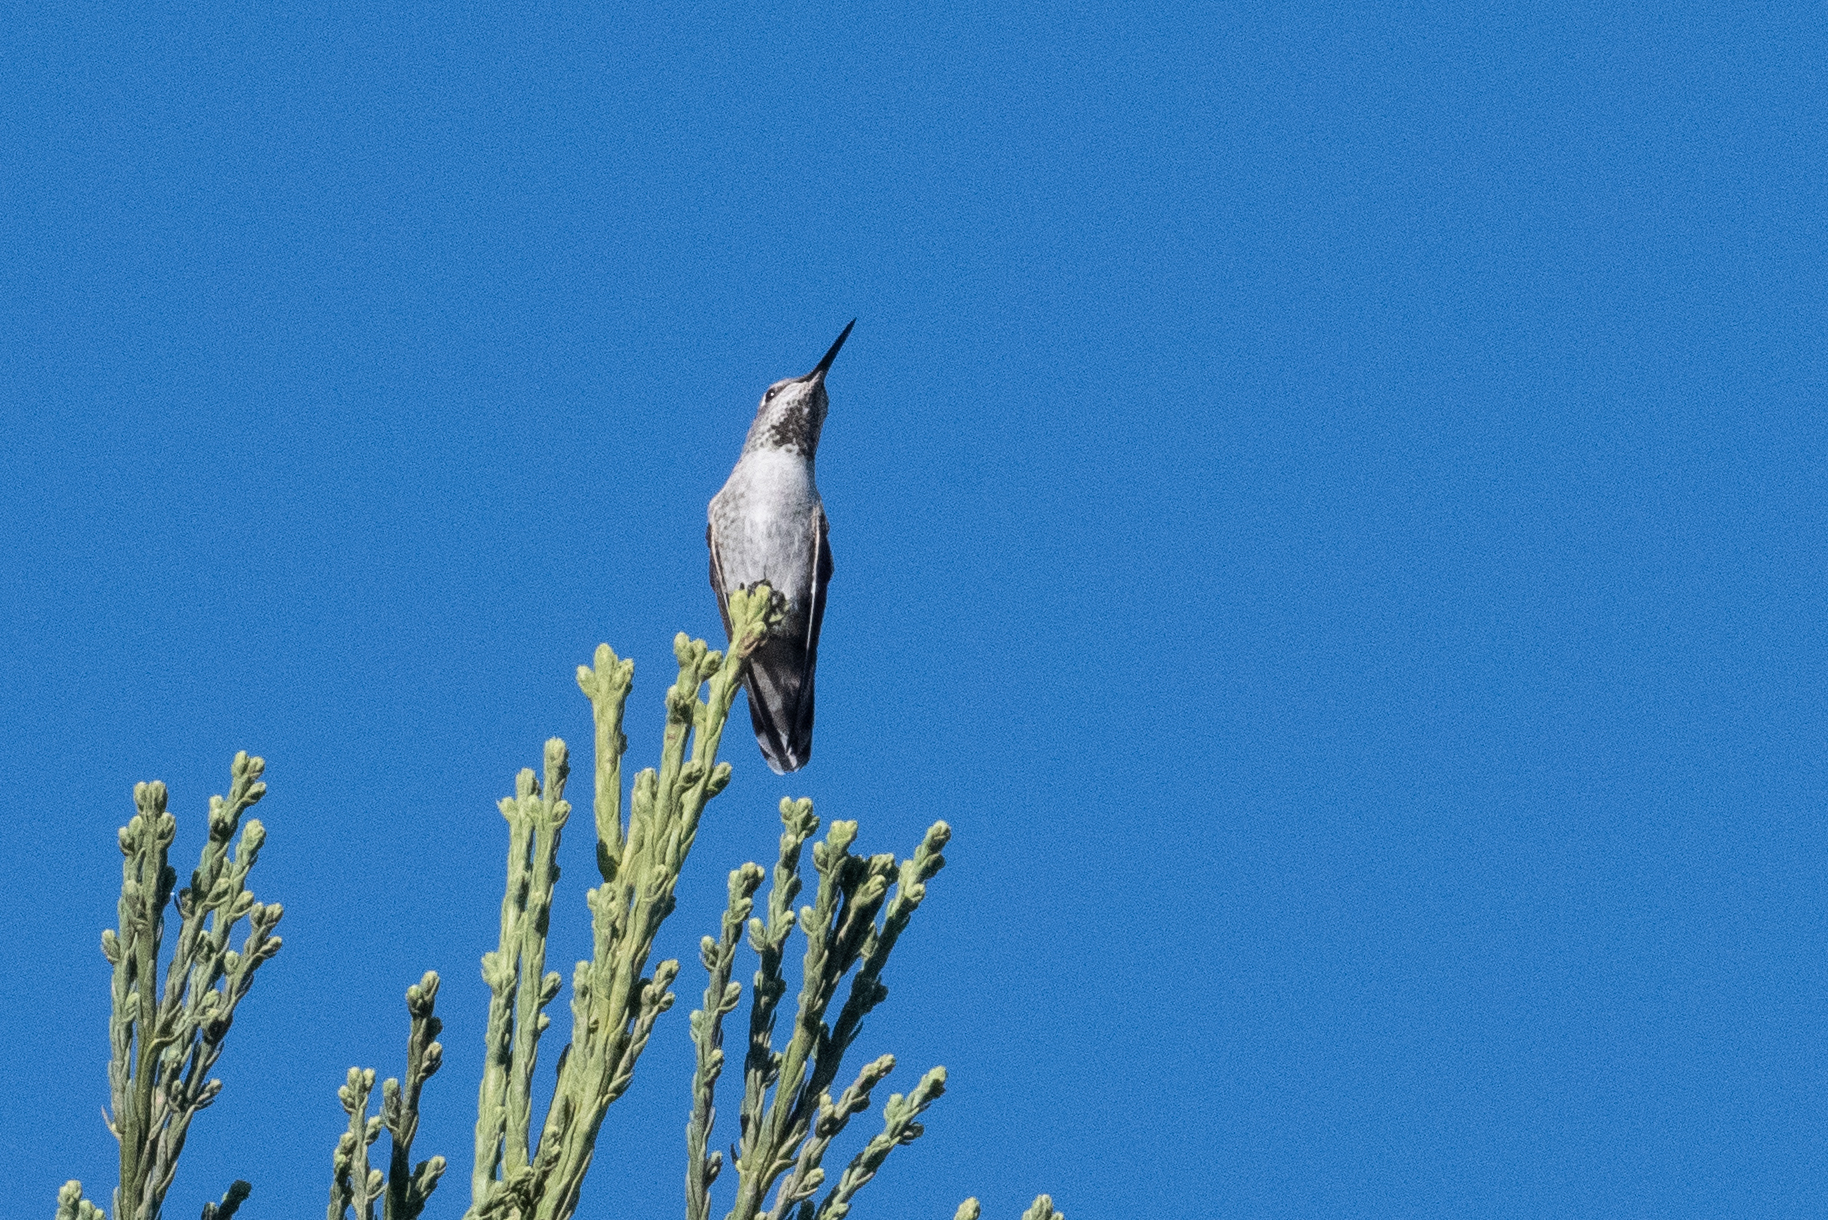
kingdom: Animalia
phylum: Chordata
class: Aves
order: Apodiformes
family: Trochilidae
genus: Calypte
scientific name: Calypte anna
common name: Anna's hummingbird
